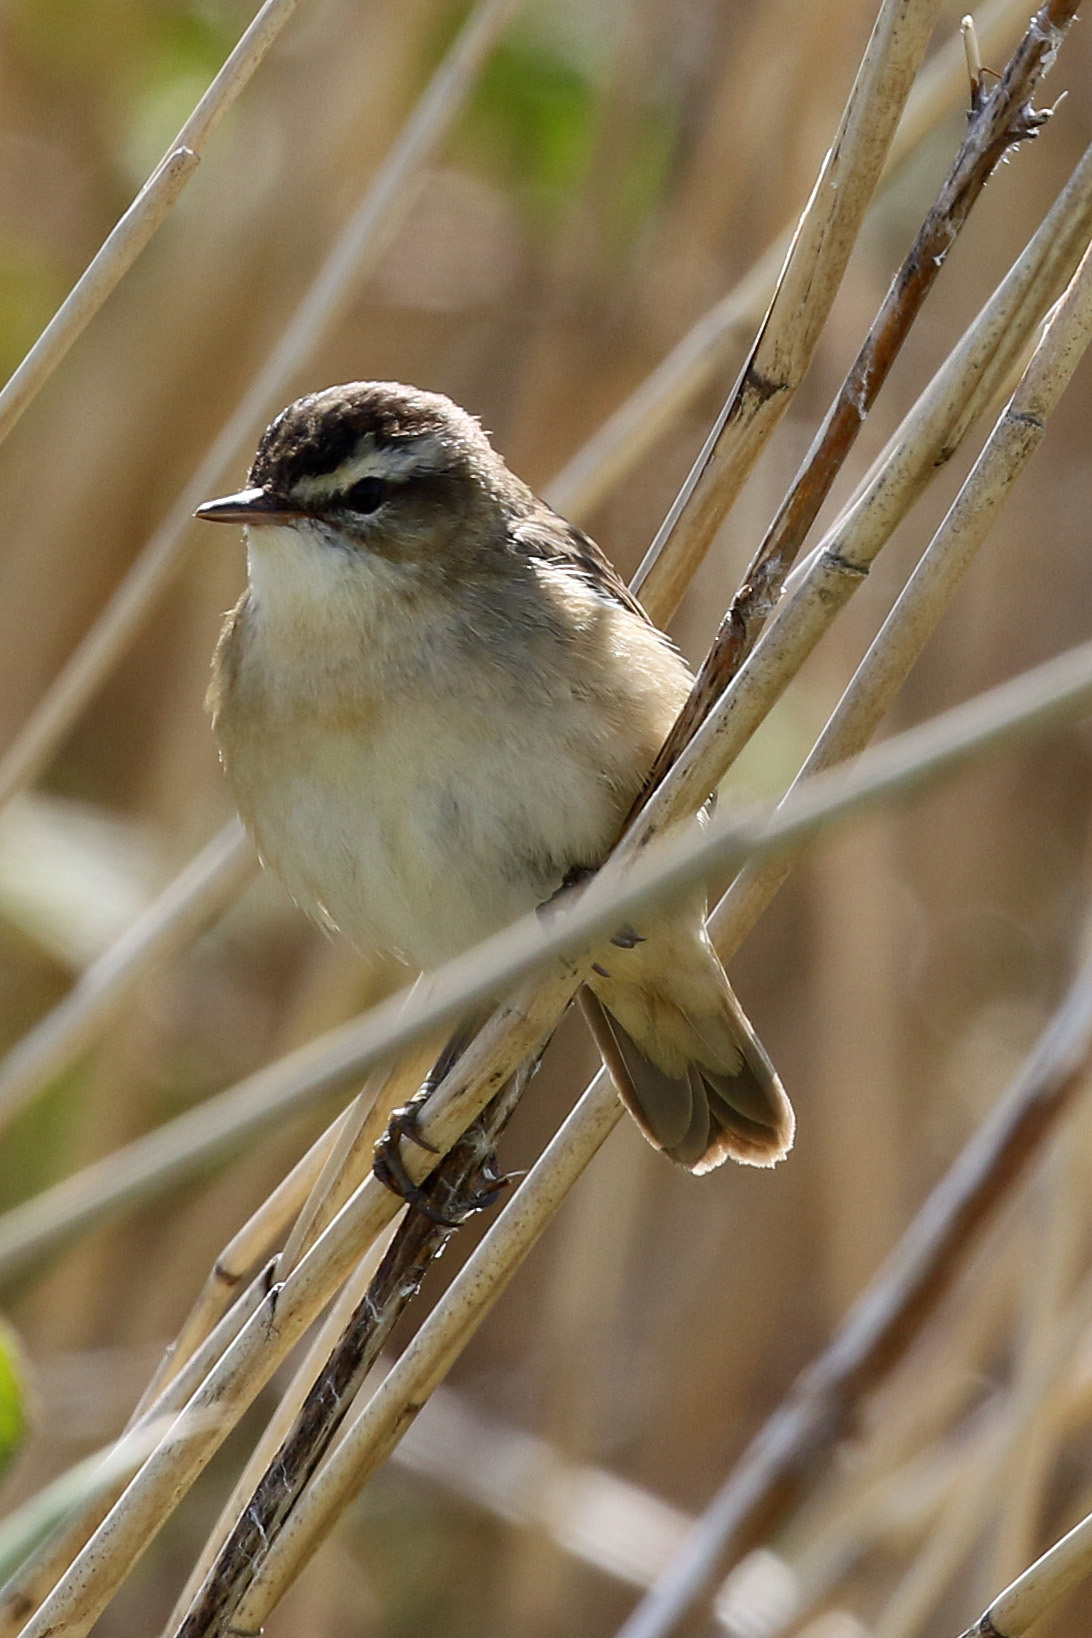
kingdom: Animalia
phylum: Chordata
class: Aves
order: Passeriformes
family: Acrocephalidae
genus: Acrocephalus
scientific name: Acrocephalus schoenobaenus
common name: Sedge warbler
